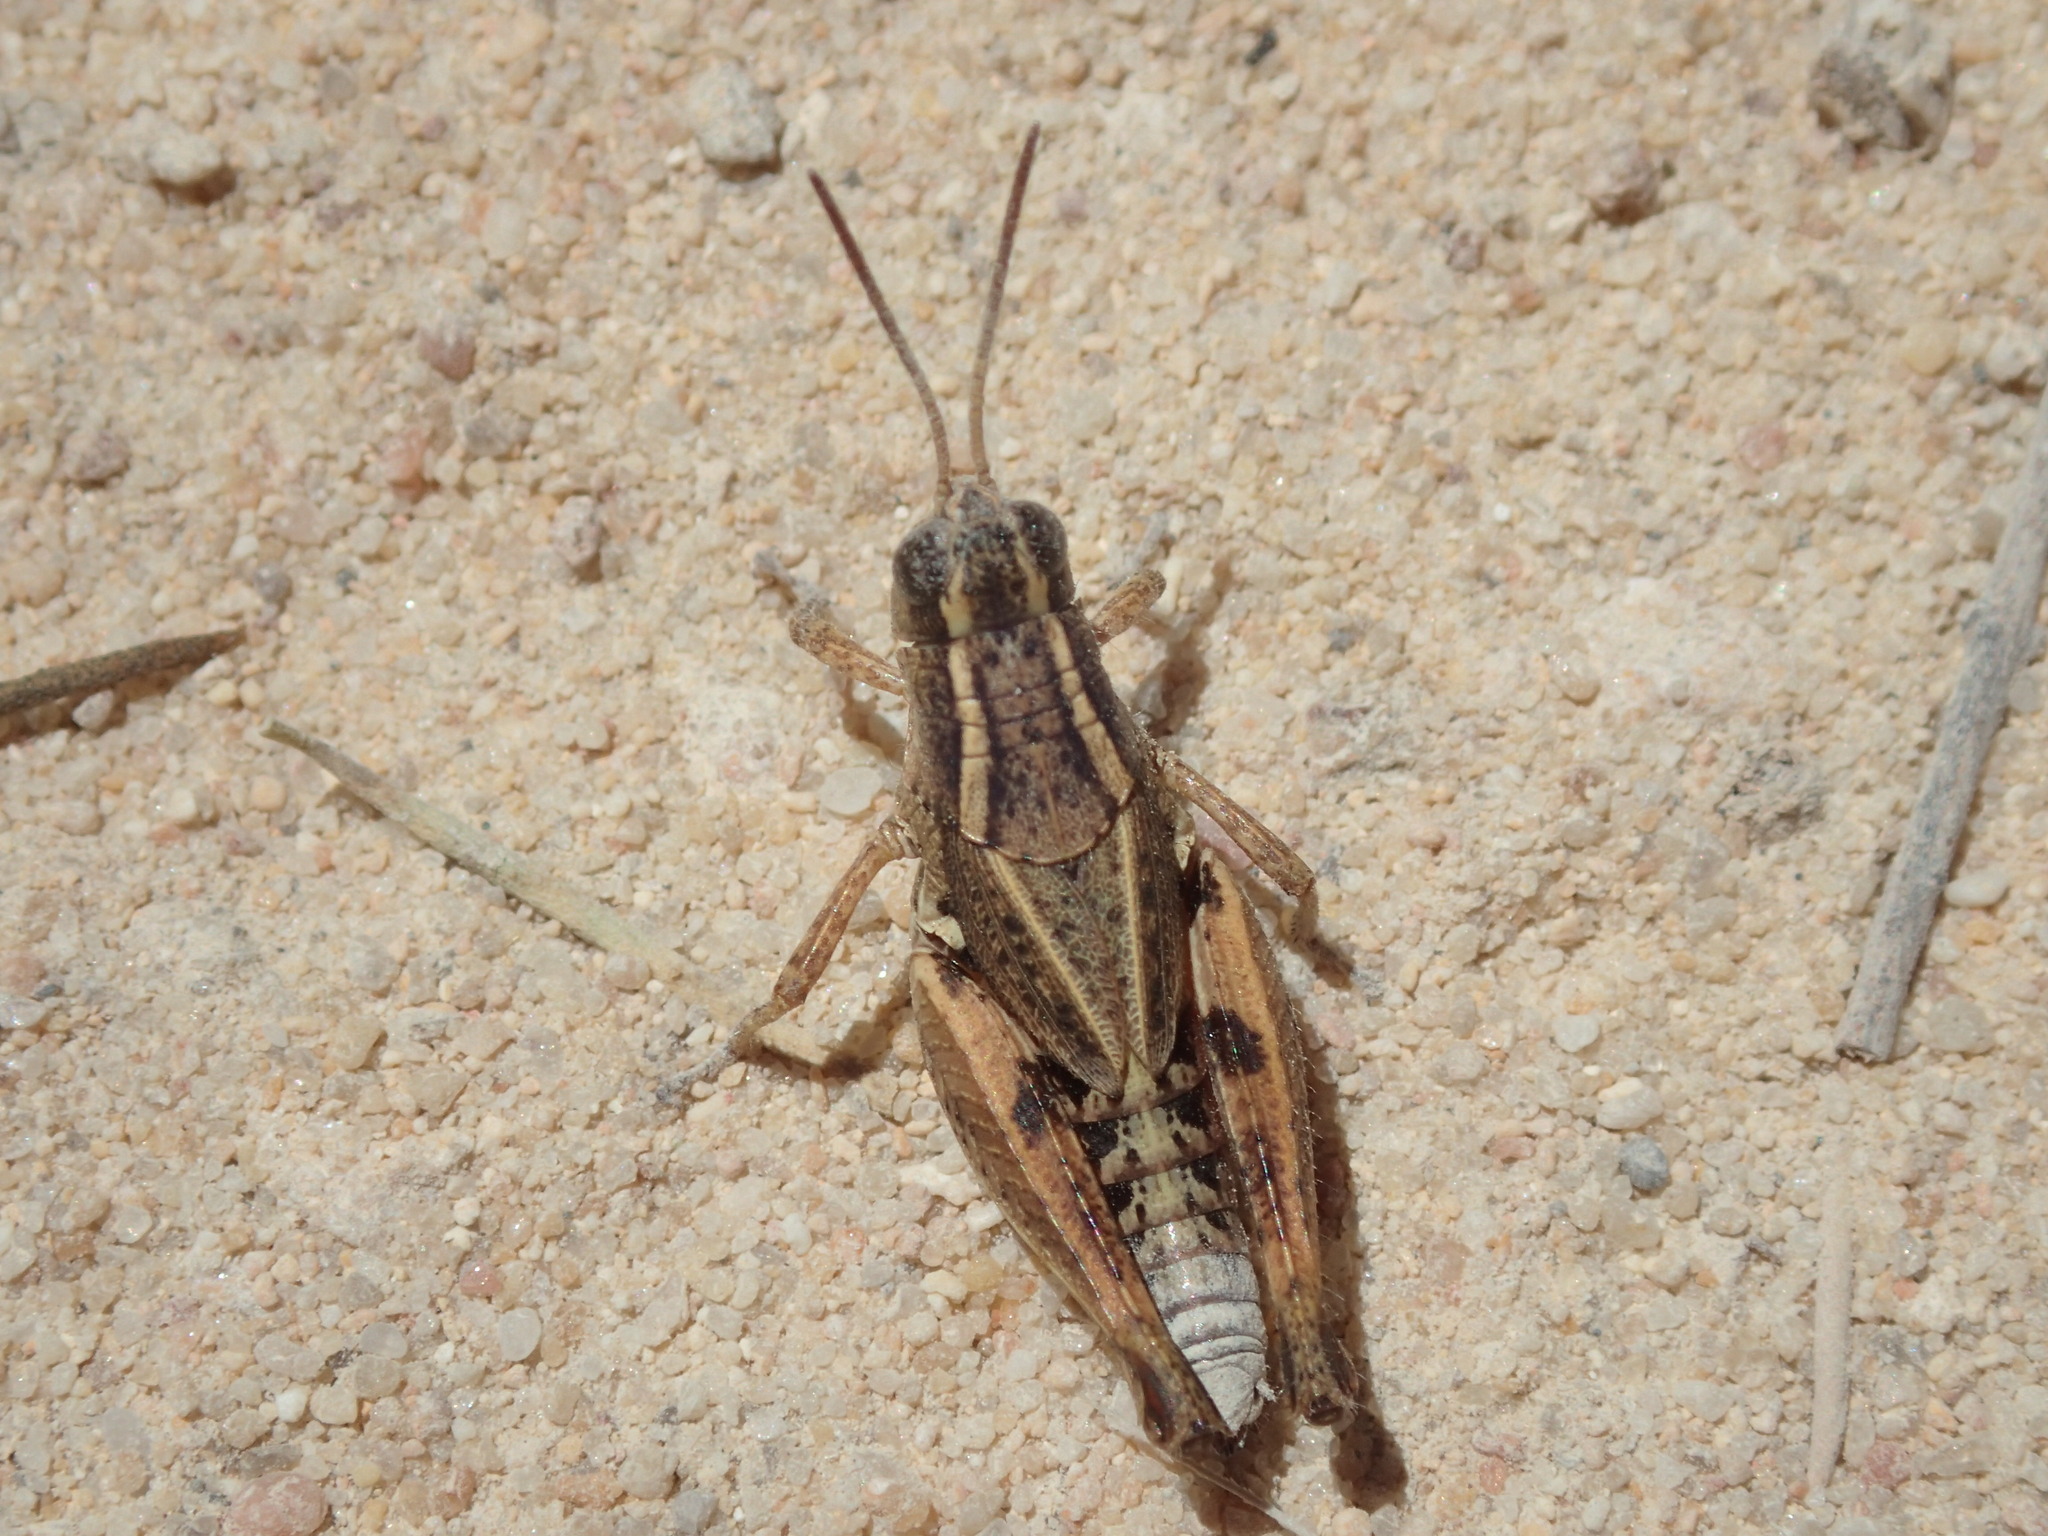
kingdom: Animalia
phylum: Arthropoda
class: Insecta
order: Orthoptera
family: Acrididae
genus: Phaulacridium
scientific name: Phaulacridium crassum
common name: Robust phaulacridium
